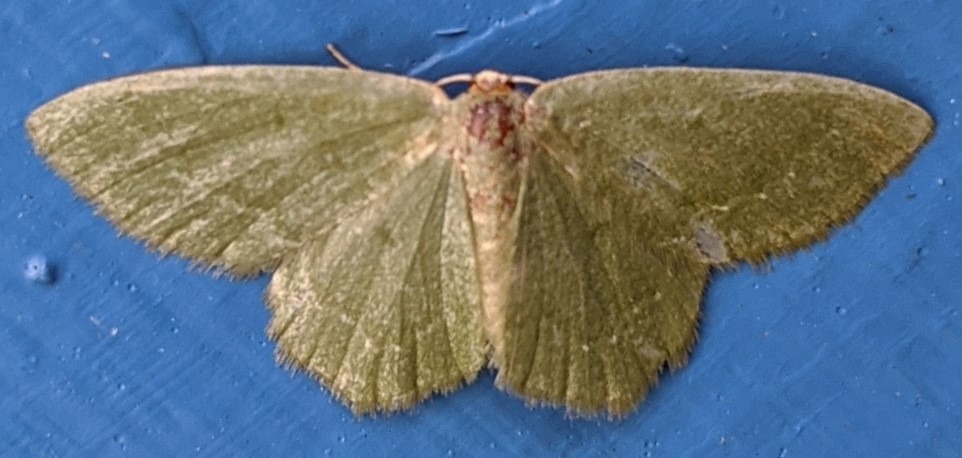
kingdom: Animalia
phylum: Arthropoda
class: Insecta
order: Lepidoptera
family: Geometridae
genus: Thalera
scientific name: Thalera pistasciaria
